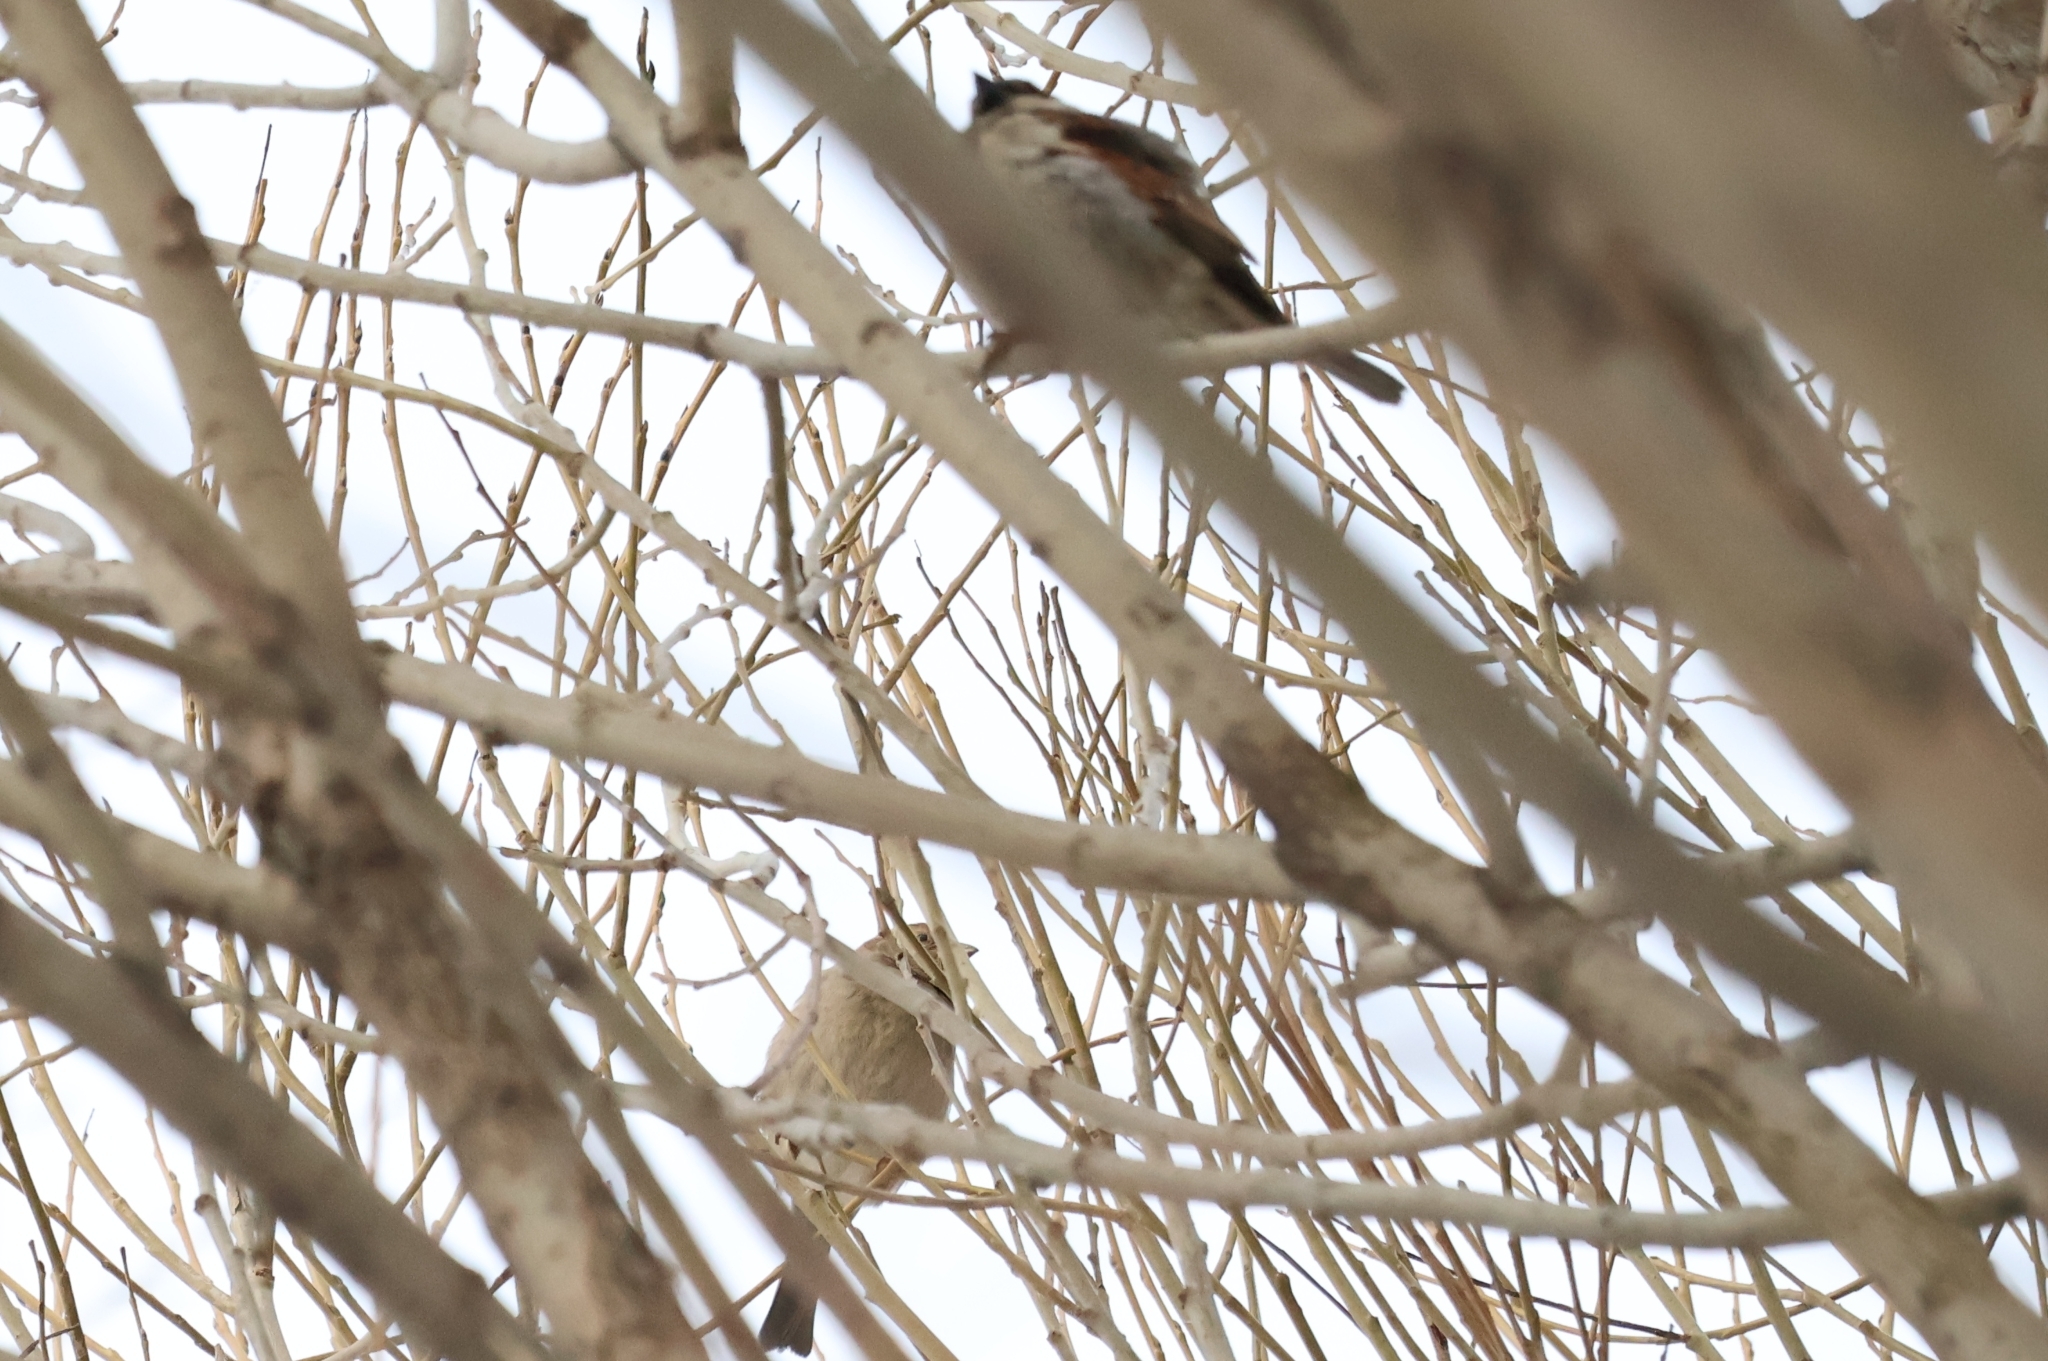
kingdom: Animalia
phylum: Chordata
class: Aves
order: Passeriformes
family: Passeridae
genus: Passer
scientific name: Passer domesticus
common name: House sparrow
